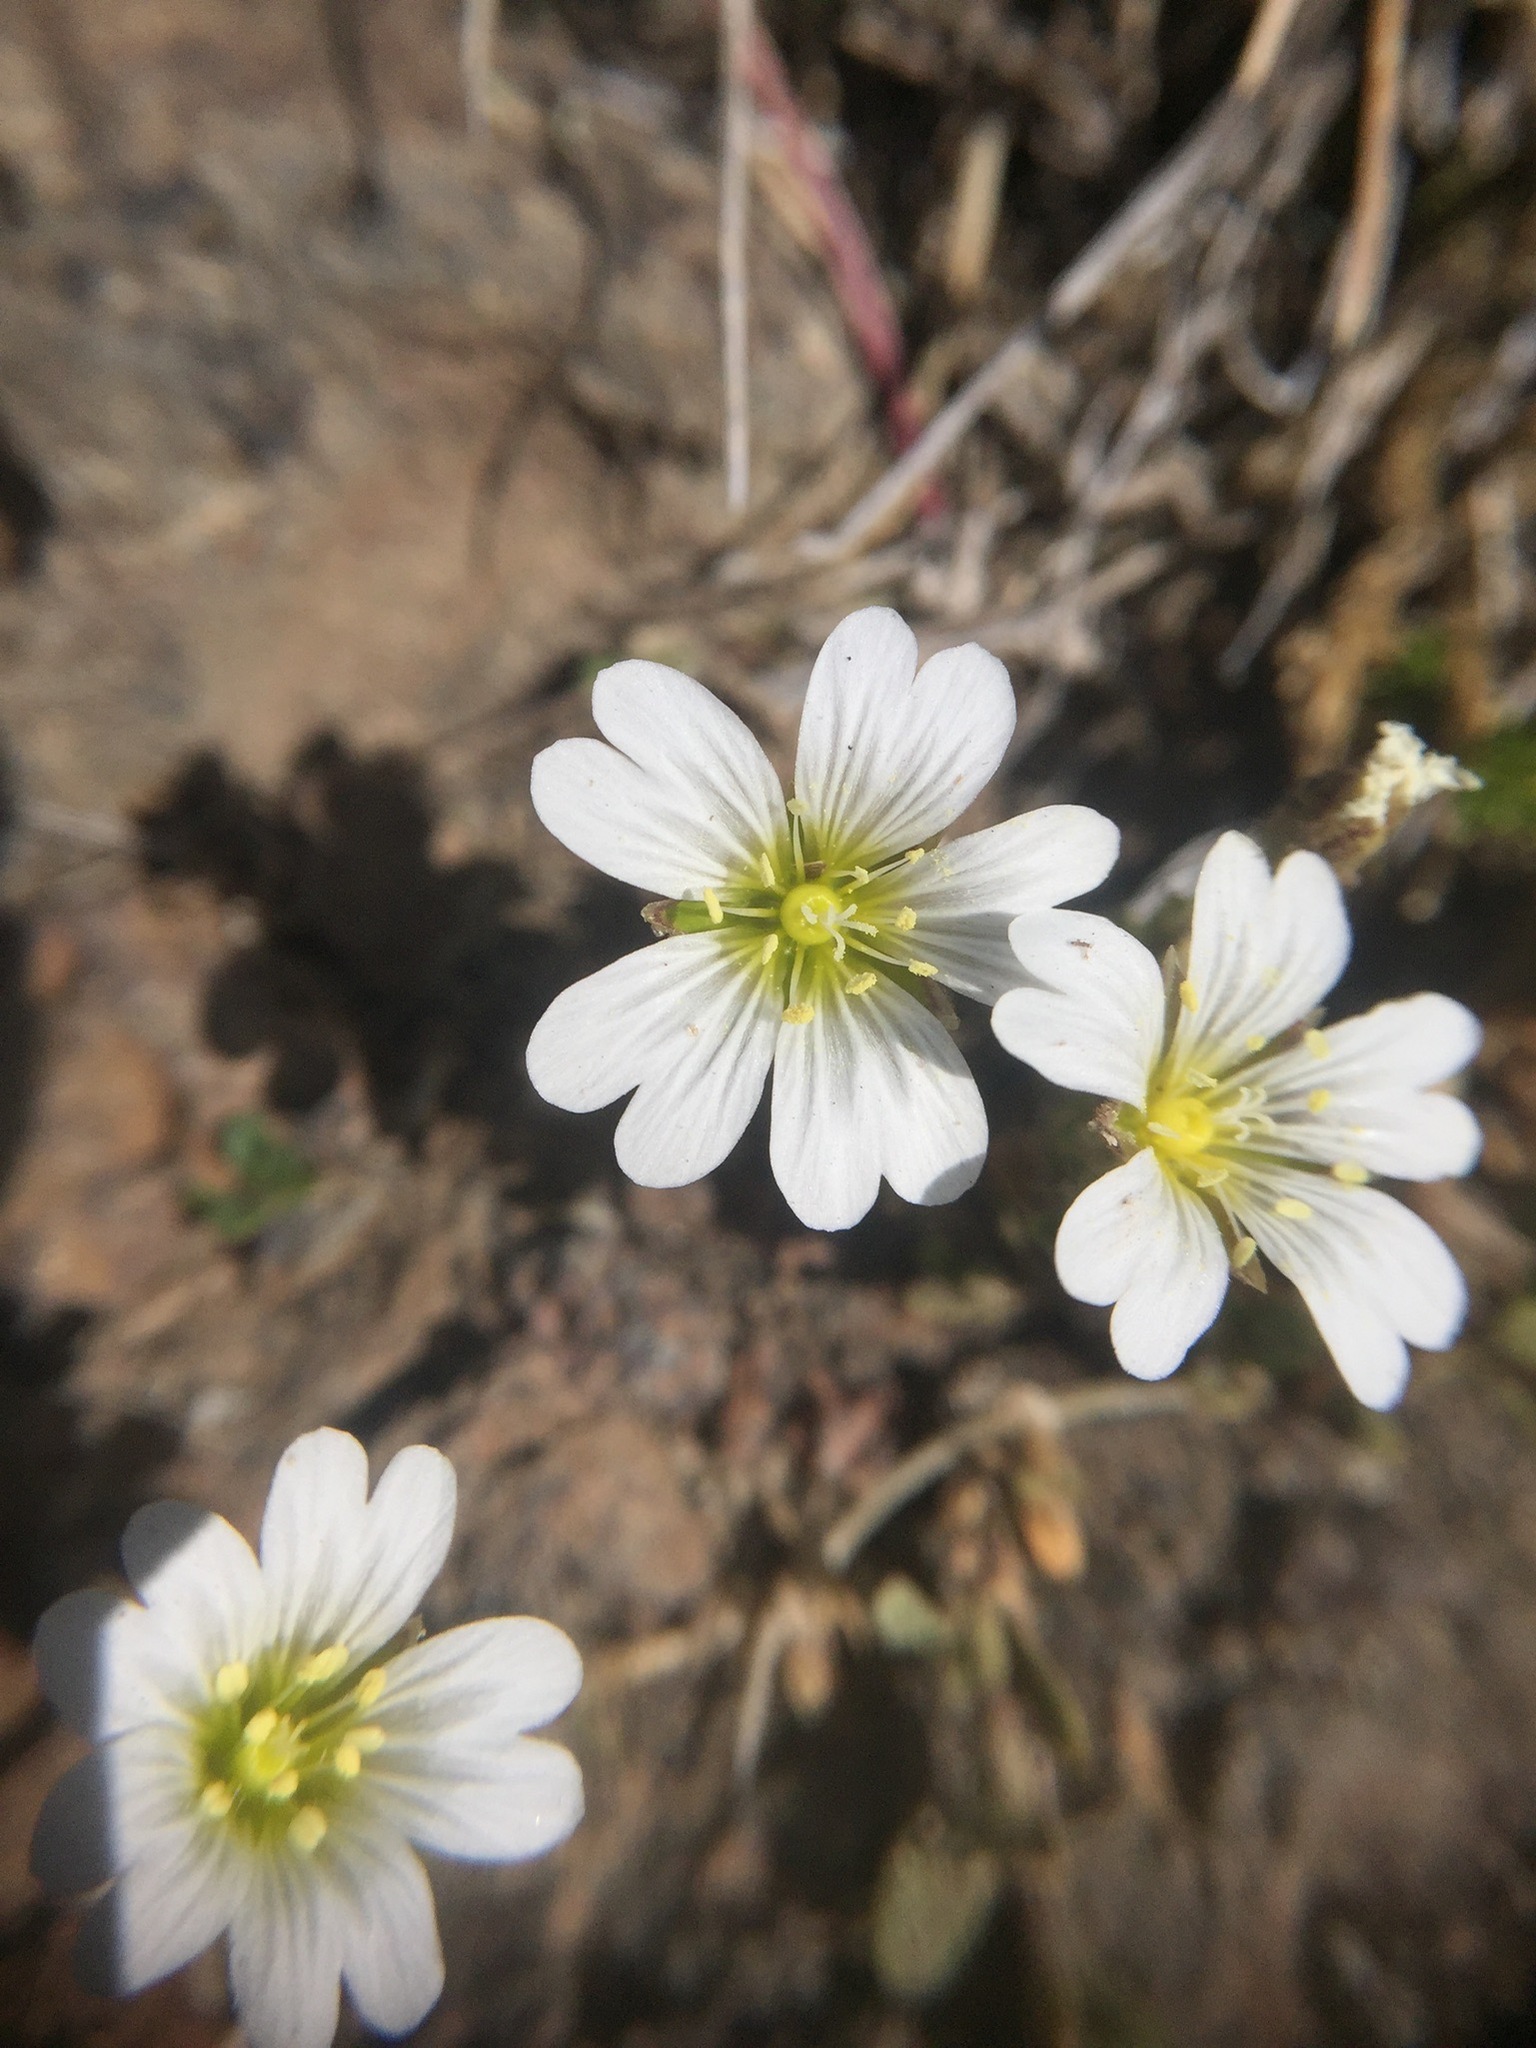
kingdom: Plantae
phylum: Tracheophyta
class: Magnoliopsida
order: Caryophyllales
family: Caryophyllaceae
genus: Cerastium
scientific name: Cerastium arvense
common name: Field mouse-ear
